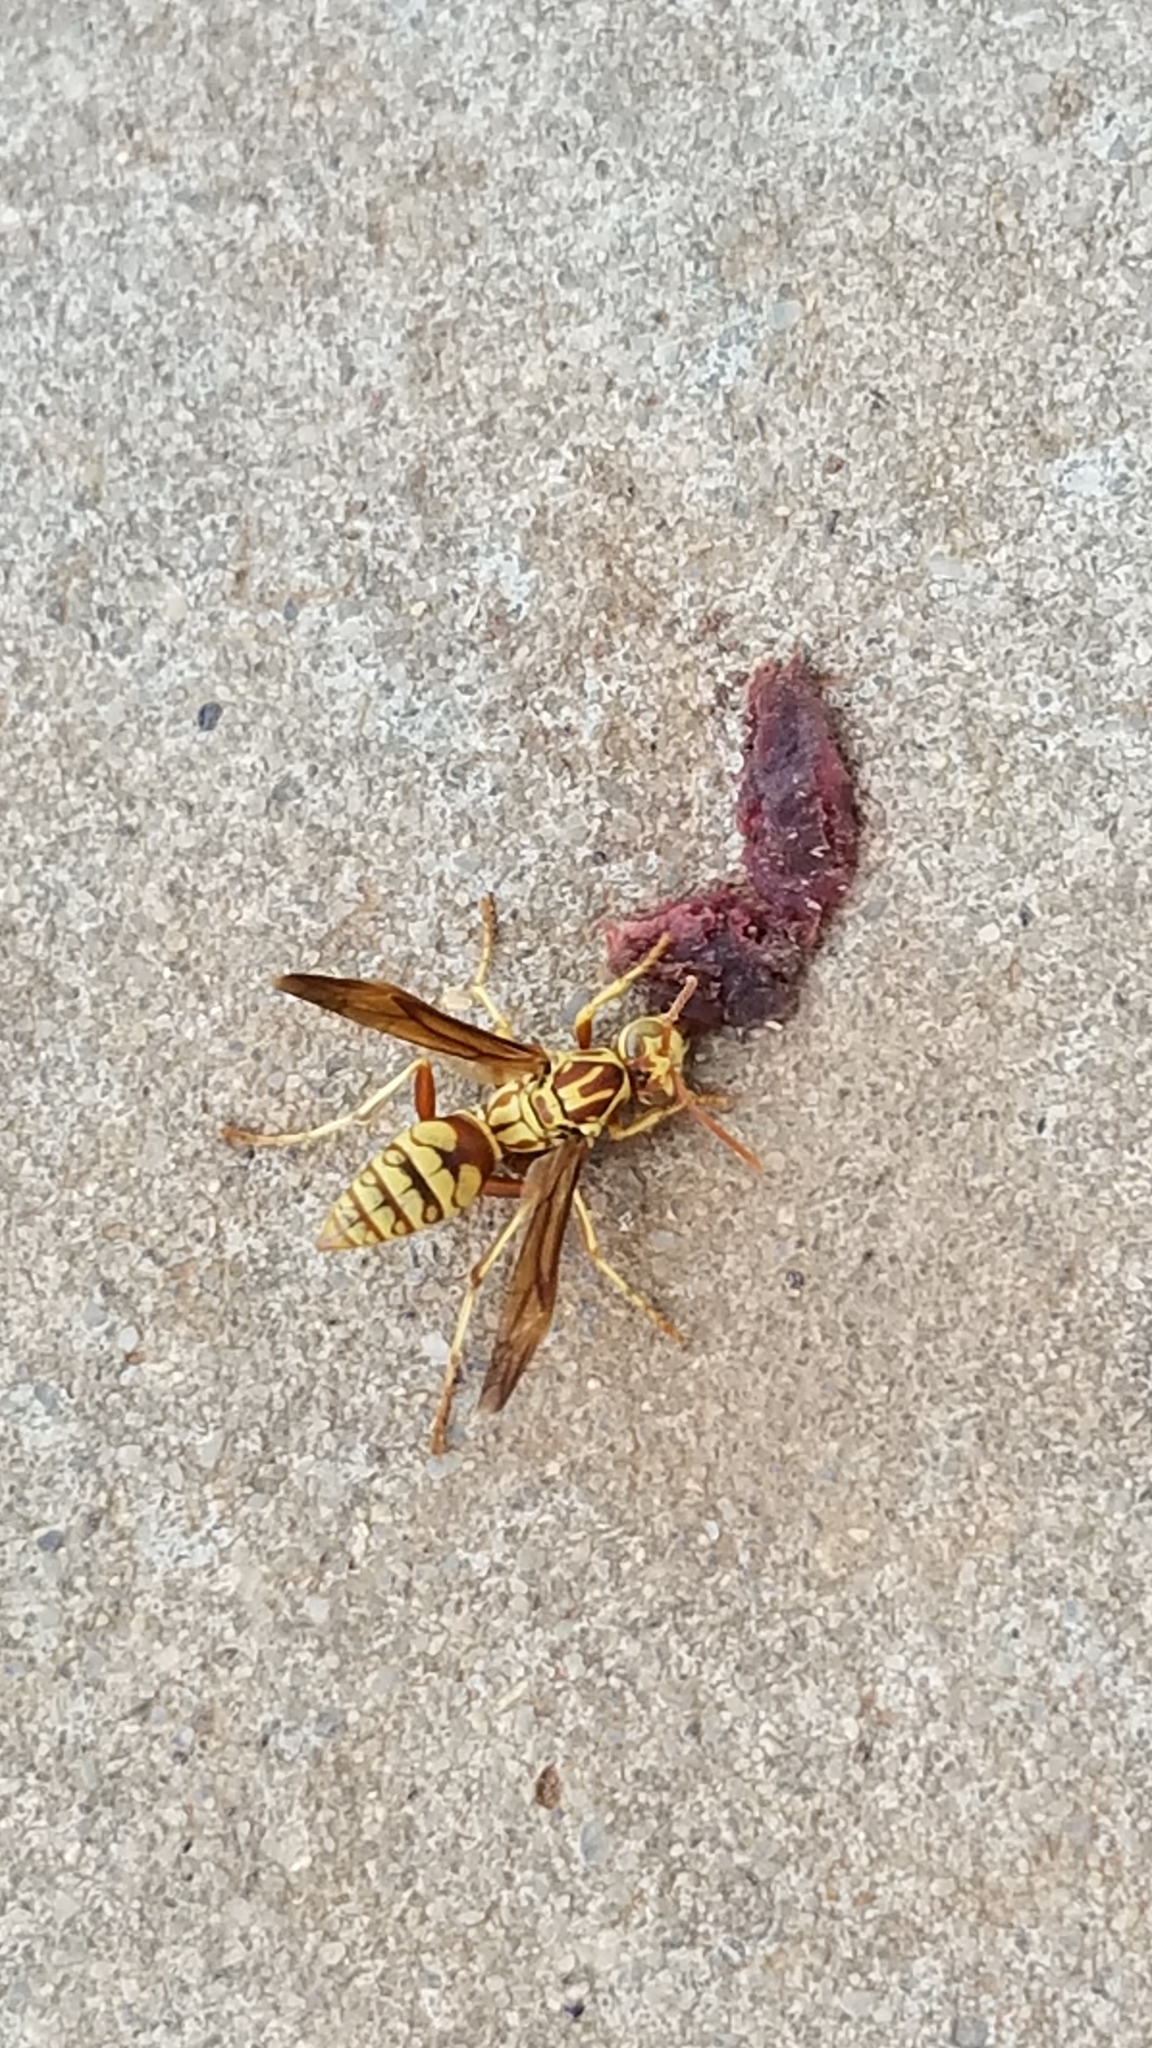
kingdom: Animalia
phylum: Arthropoda
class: Insecta
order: Hymenoptera
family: Eumenidae
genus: Polistes
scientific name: Polistes apachus
